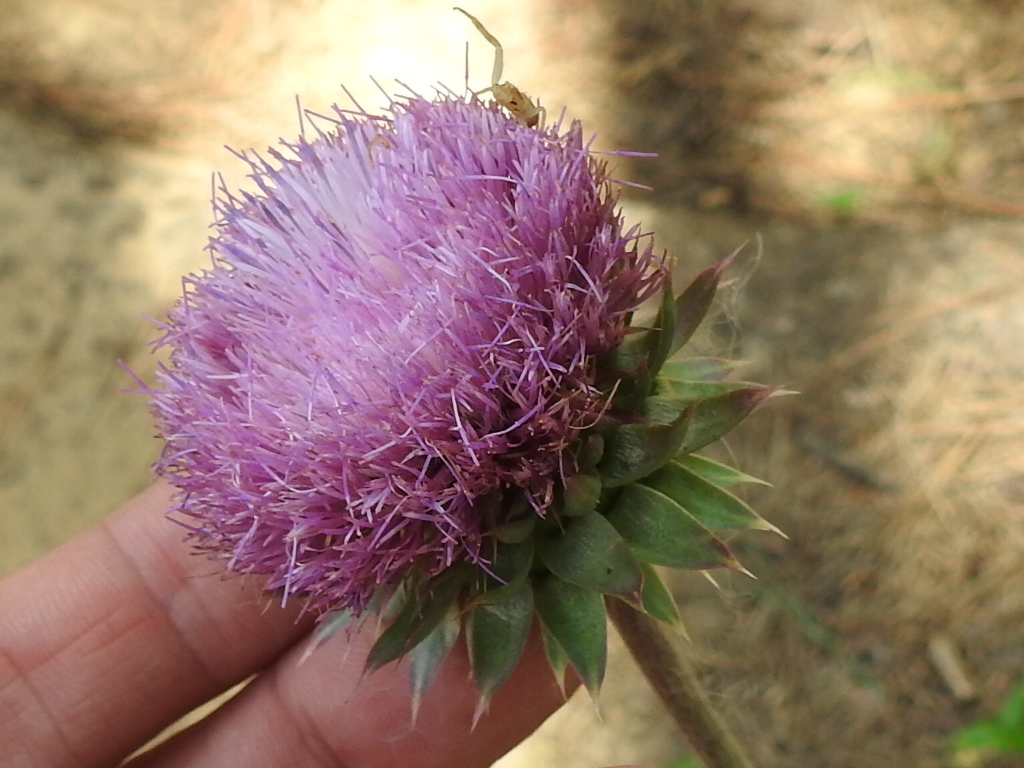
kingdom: Plantae
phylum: Tracheophyta
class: Magnoliopsida
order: Asterales
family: Asteraceae
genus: Carduus
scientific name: Carduus nutans
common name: Musk thistle
